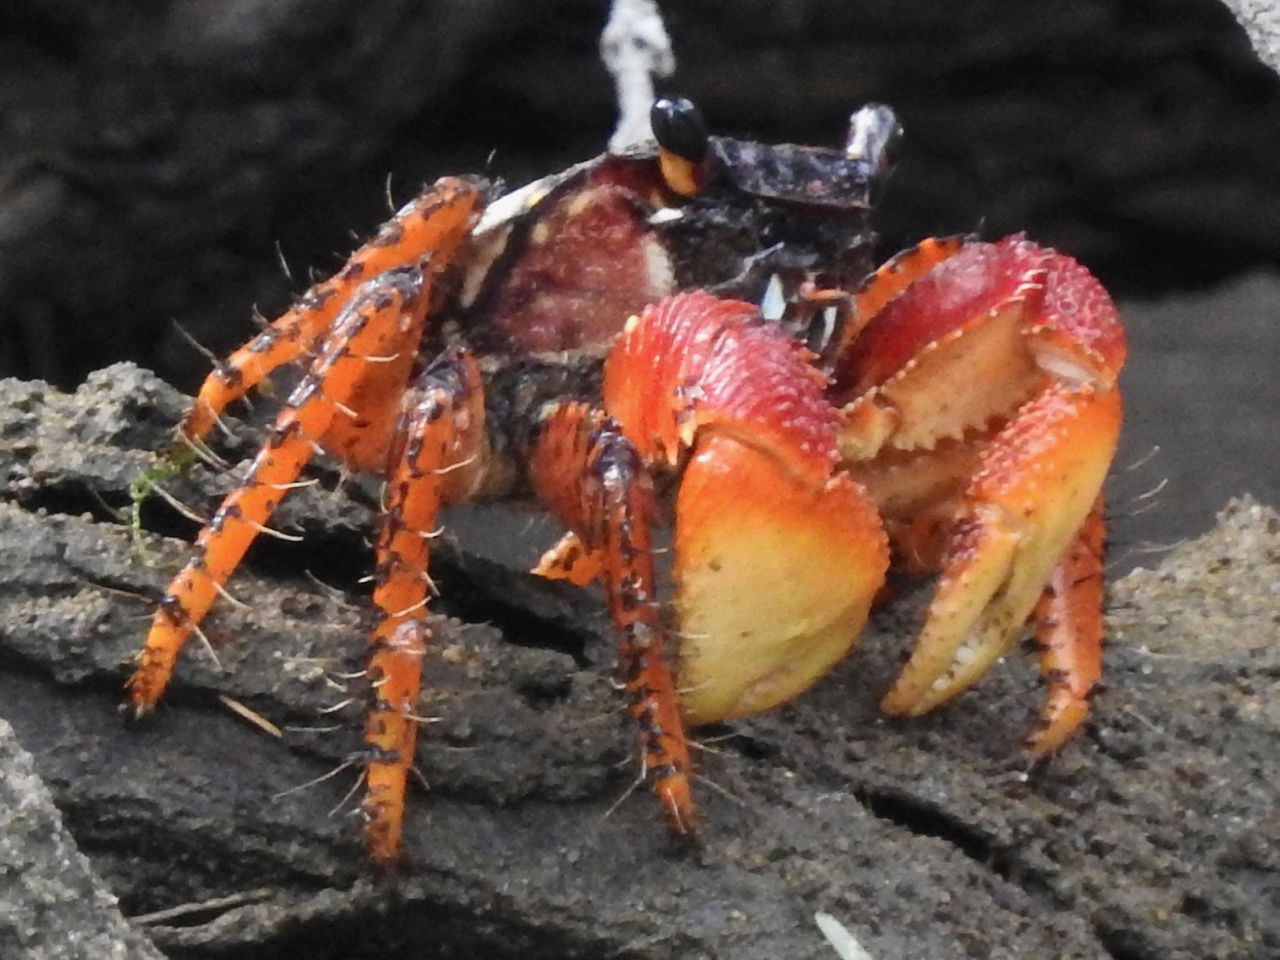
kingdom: Animalia
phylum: Arthropoda
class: Malacostraca
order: Decapoda
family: Grapsidae
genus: Goniopsis
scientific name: Goniopsis pulchra
